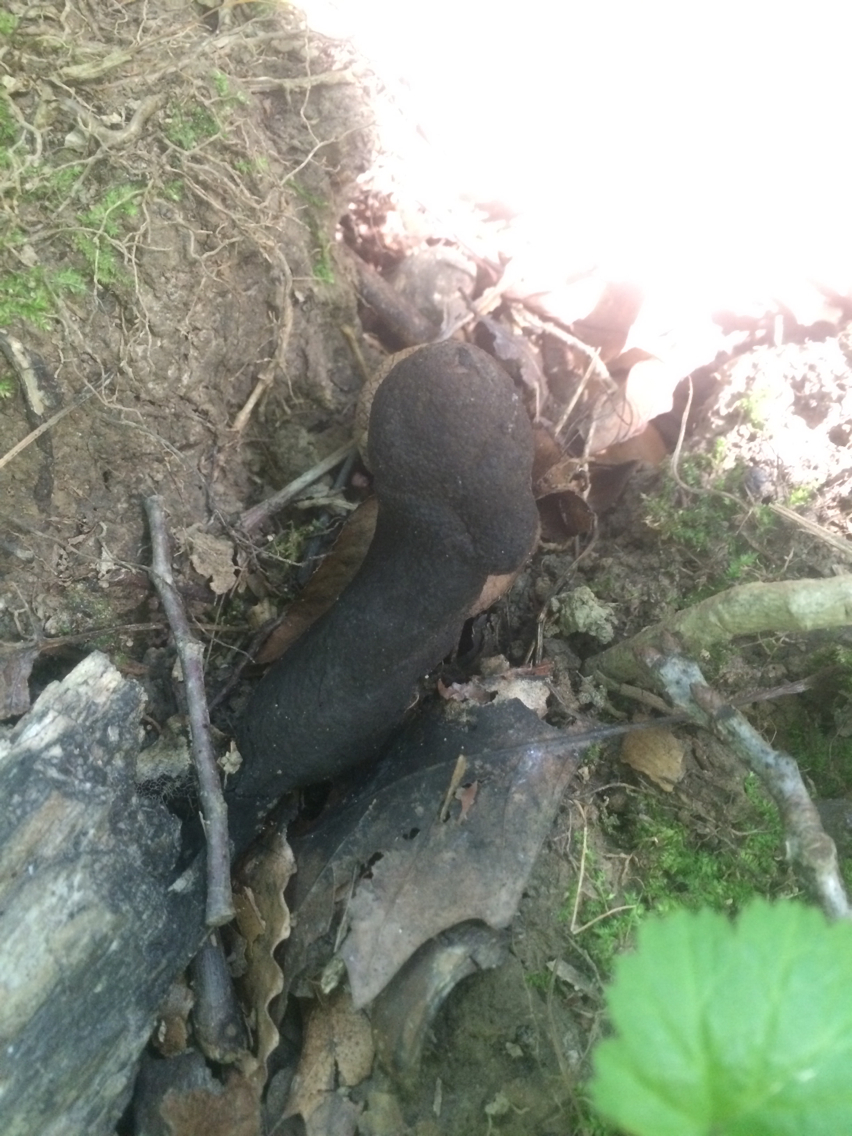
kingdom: Fungi
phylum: Ascomycota
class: Sordariomycetes
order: Xylariales
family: Xylariaceae
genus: Xylaria
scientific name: Xylaria polymorpha
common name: Dead man's fingers
